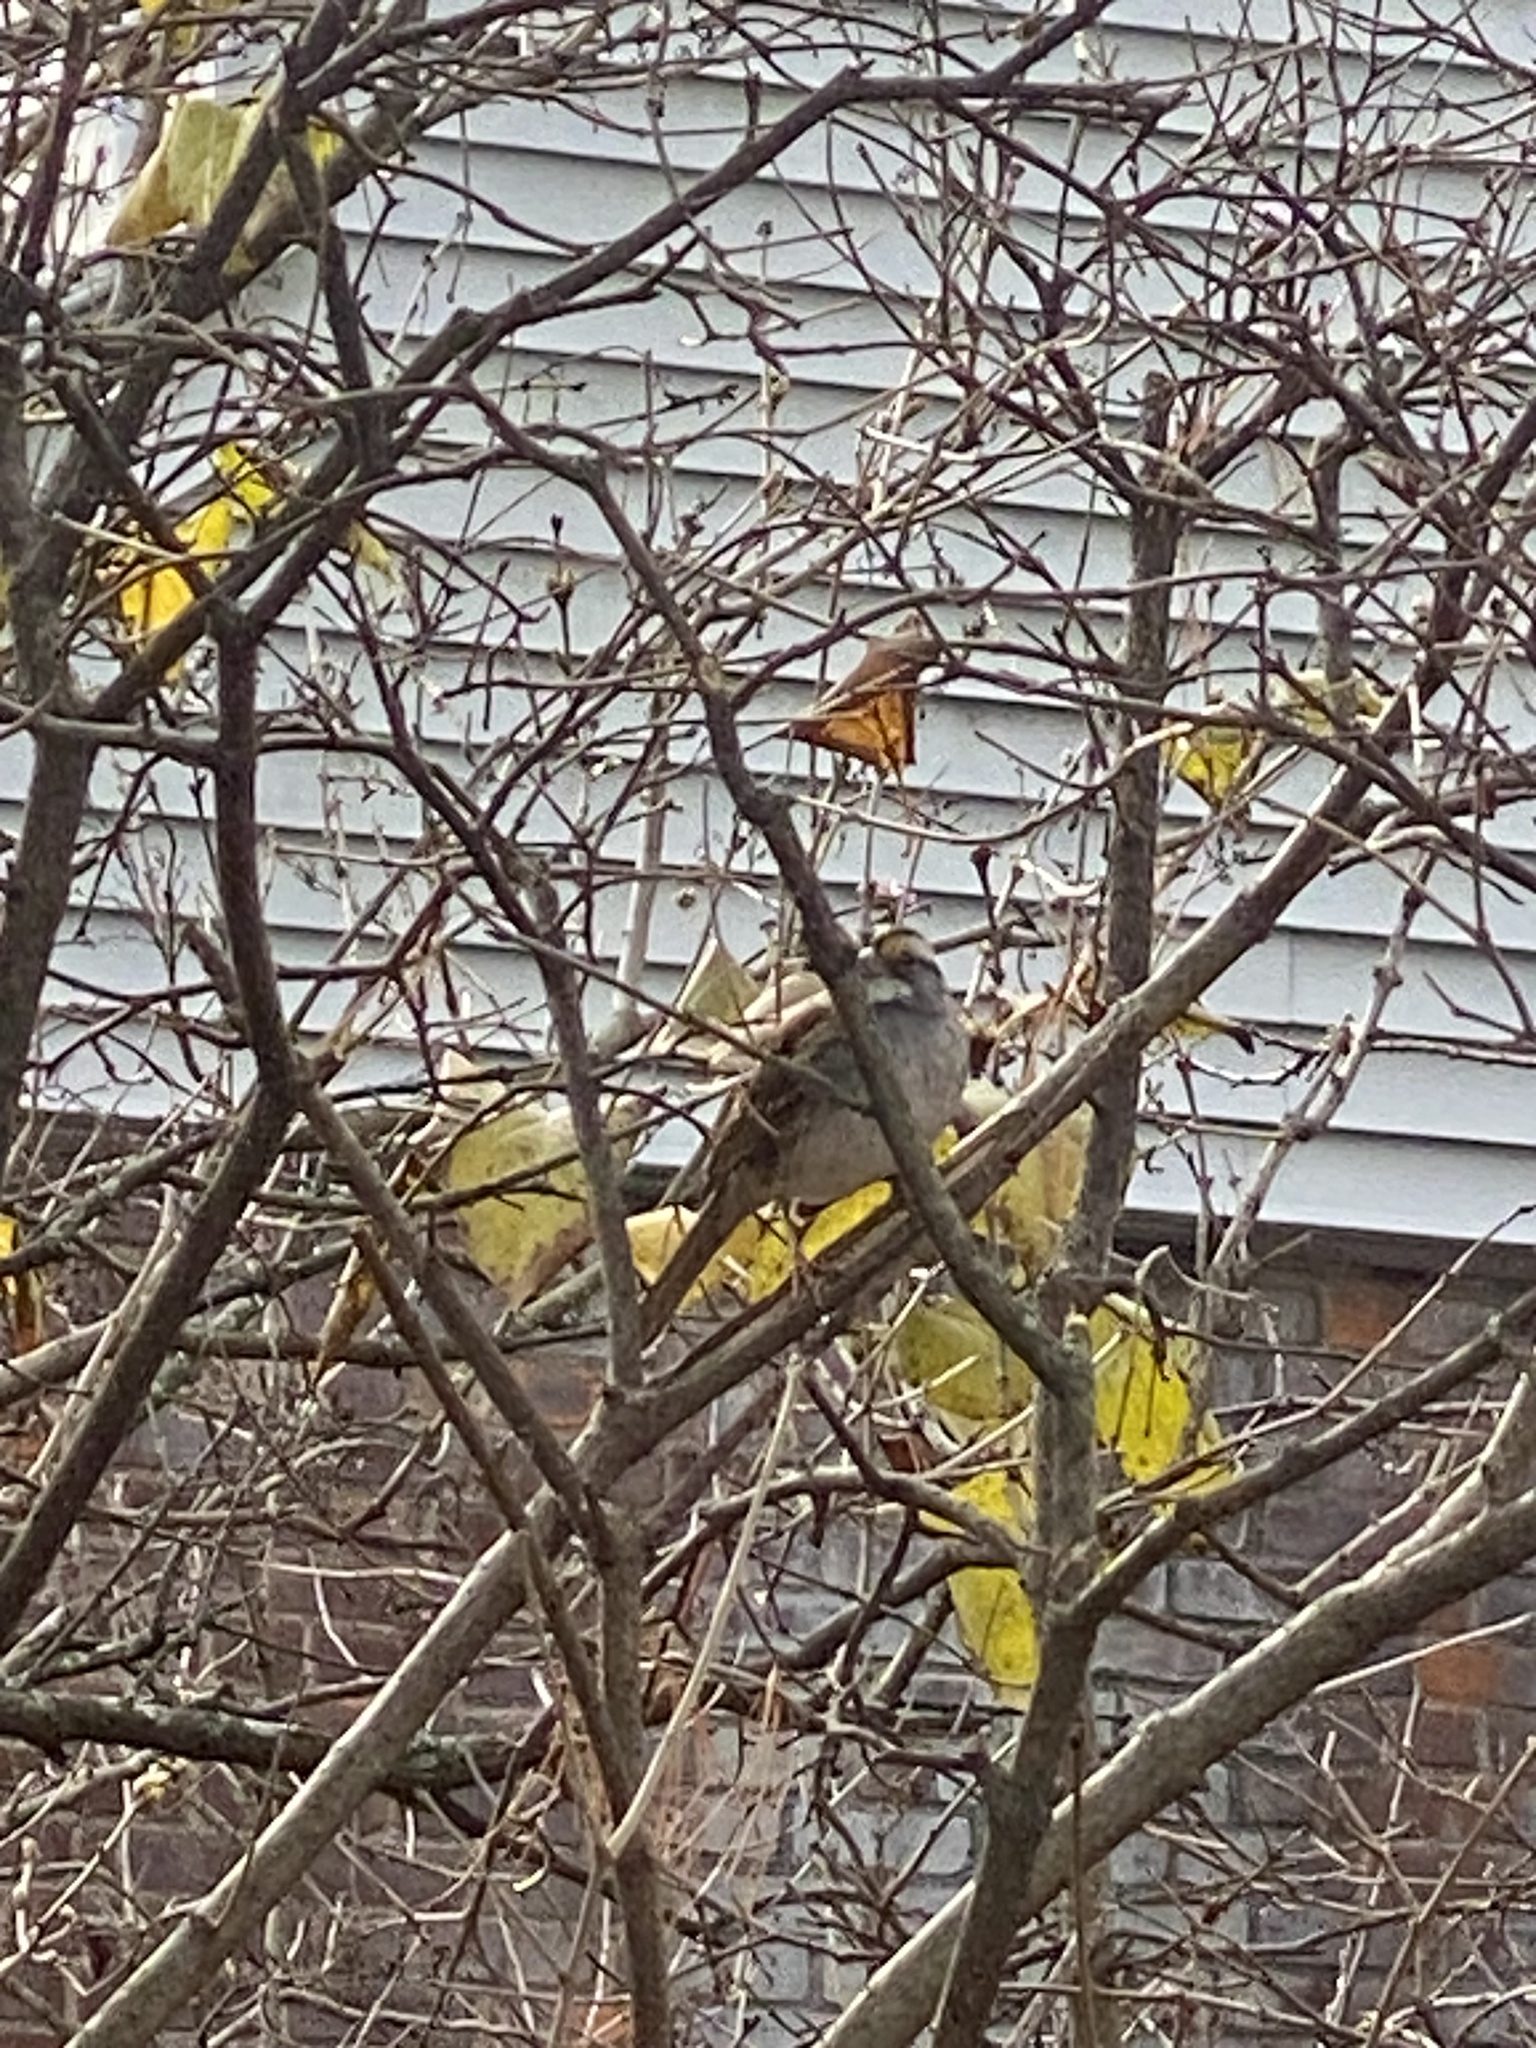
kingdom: Animalia
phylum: Chordata
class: Aves
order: Passeriformes
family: Passerellidae
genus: Zonotrichia
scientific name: Zonotrichia albicollis
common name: White-throated sparrow
